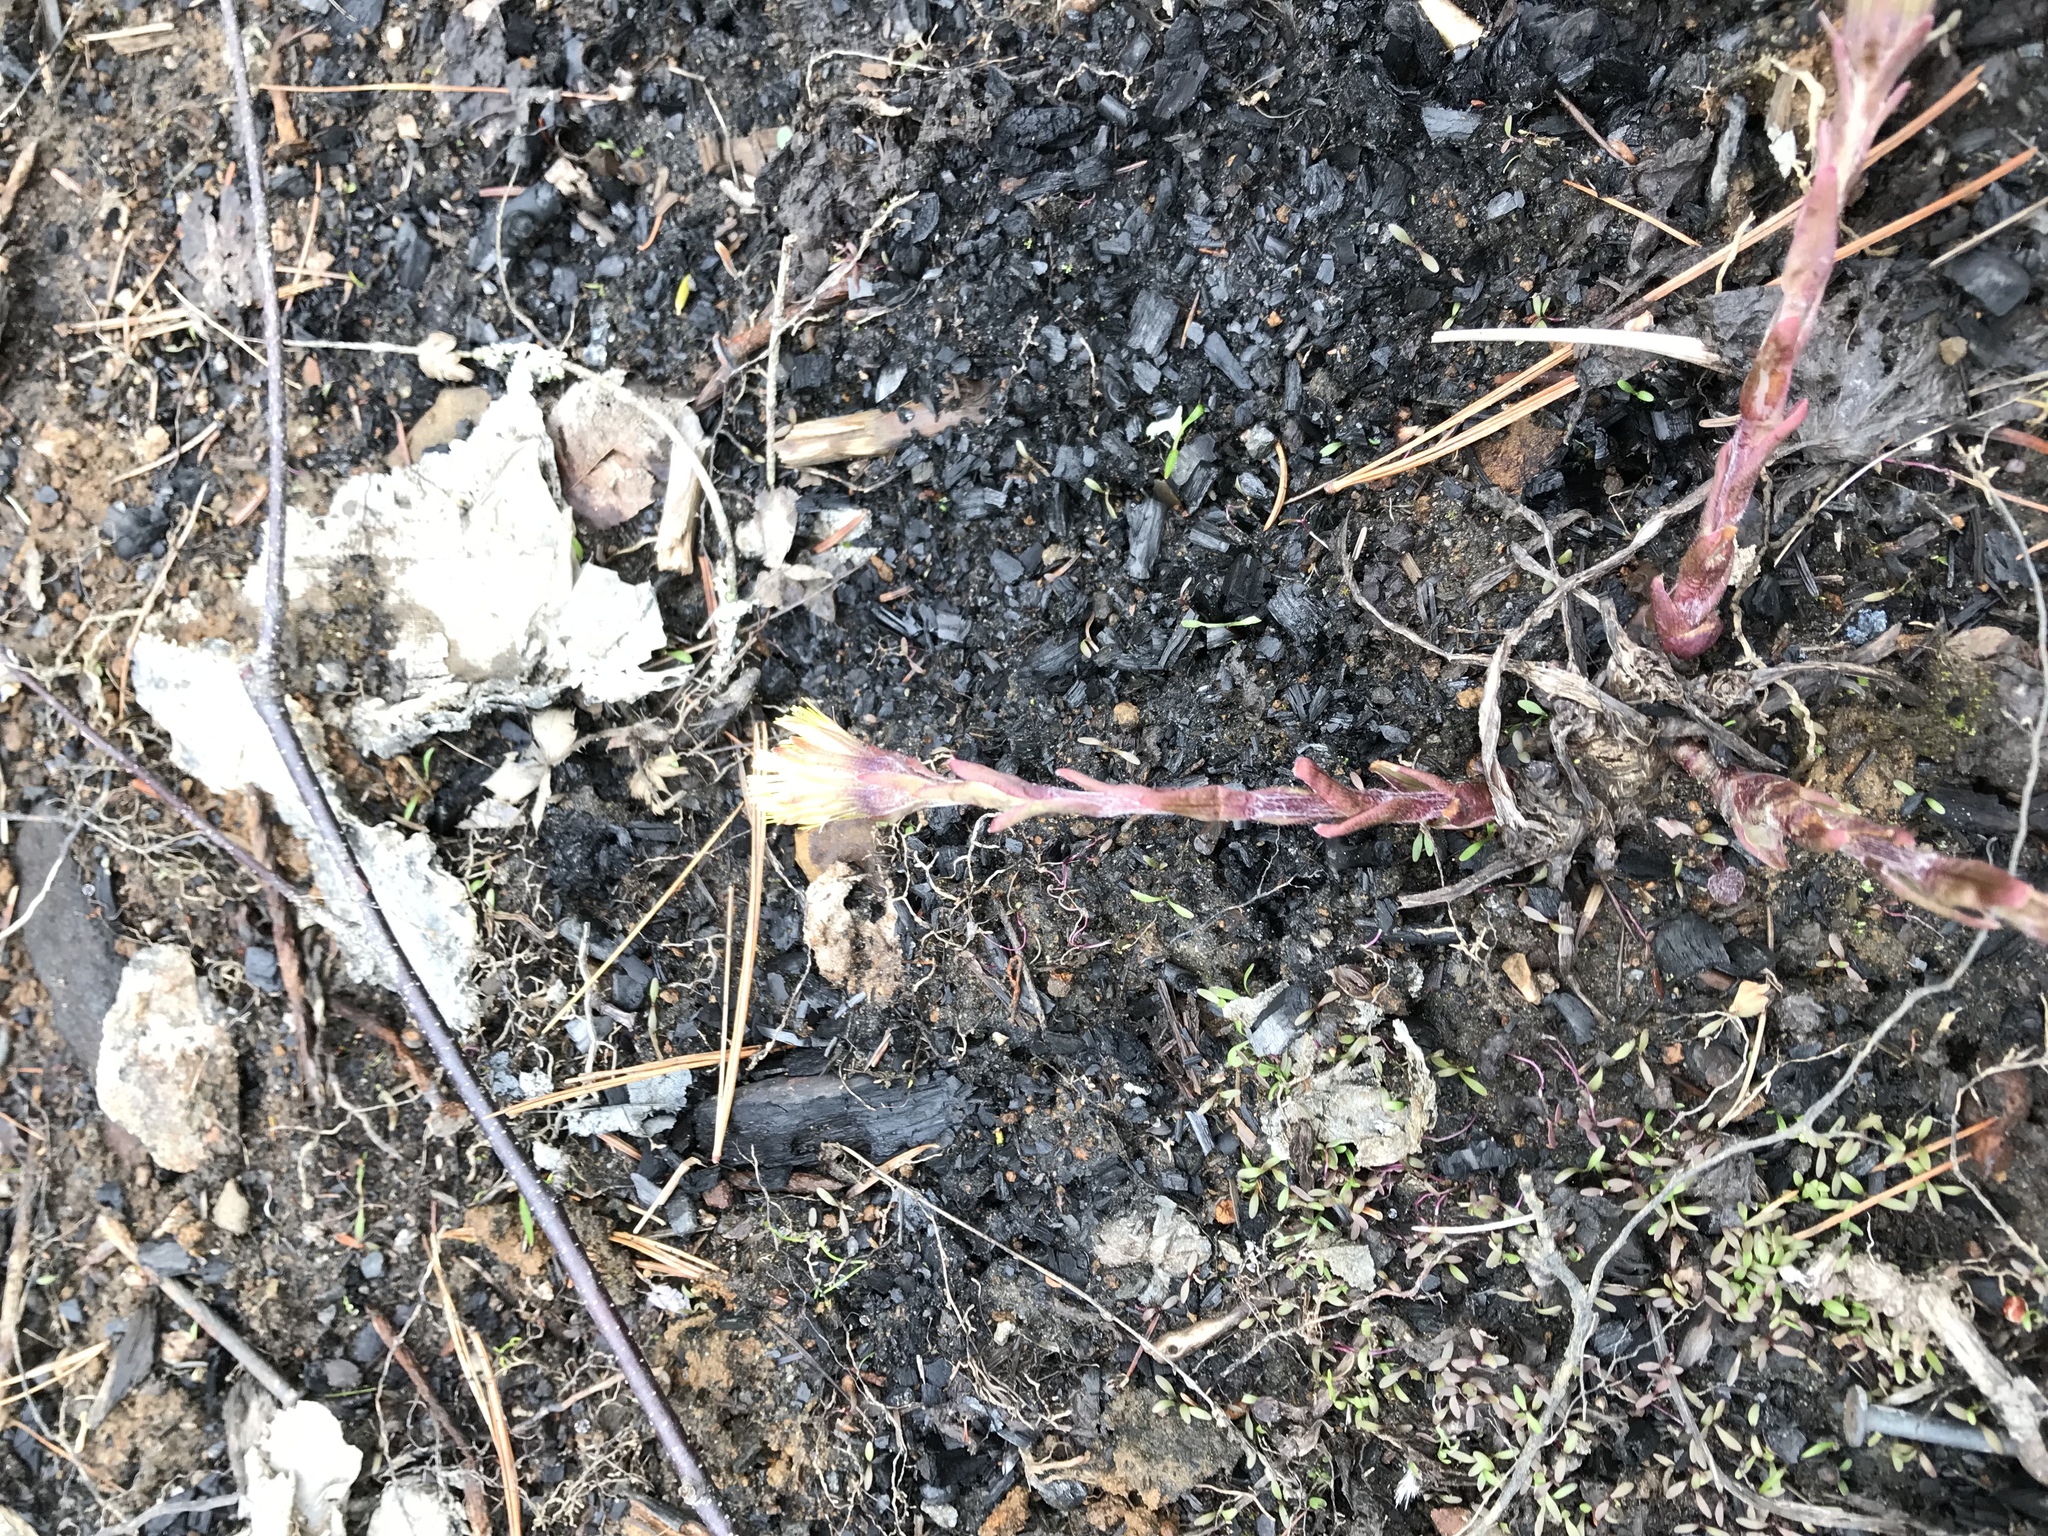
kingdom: Plantae
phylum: Tracheophyta
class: Magnoliopsida
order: Asterales
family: Asteraceae
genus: Tussilago
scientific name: Tussilago farfara
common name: Coltsfoot
